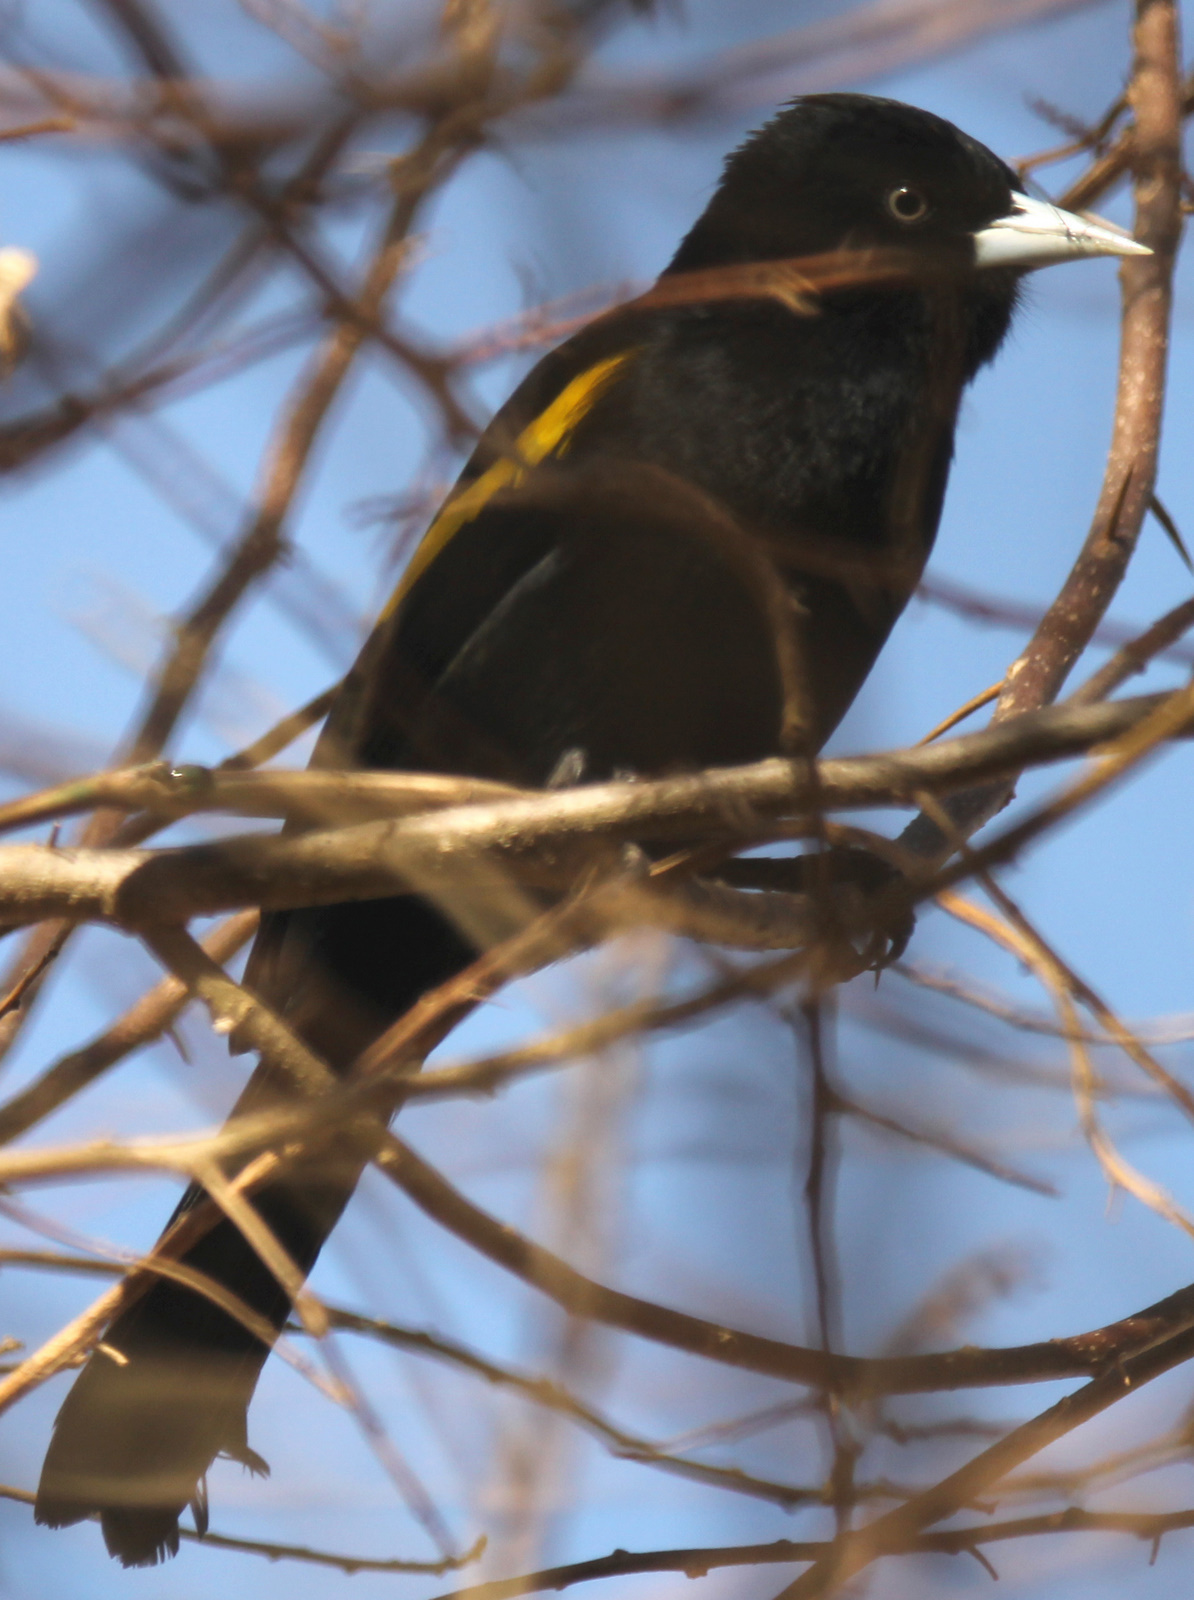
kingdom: Animalia
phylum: Chordata
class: Aves
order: Passeriformes
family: Icteridae
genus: Cacicus
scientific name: Cacicus chrysopterus
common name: Golden-winged cacique
